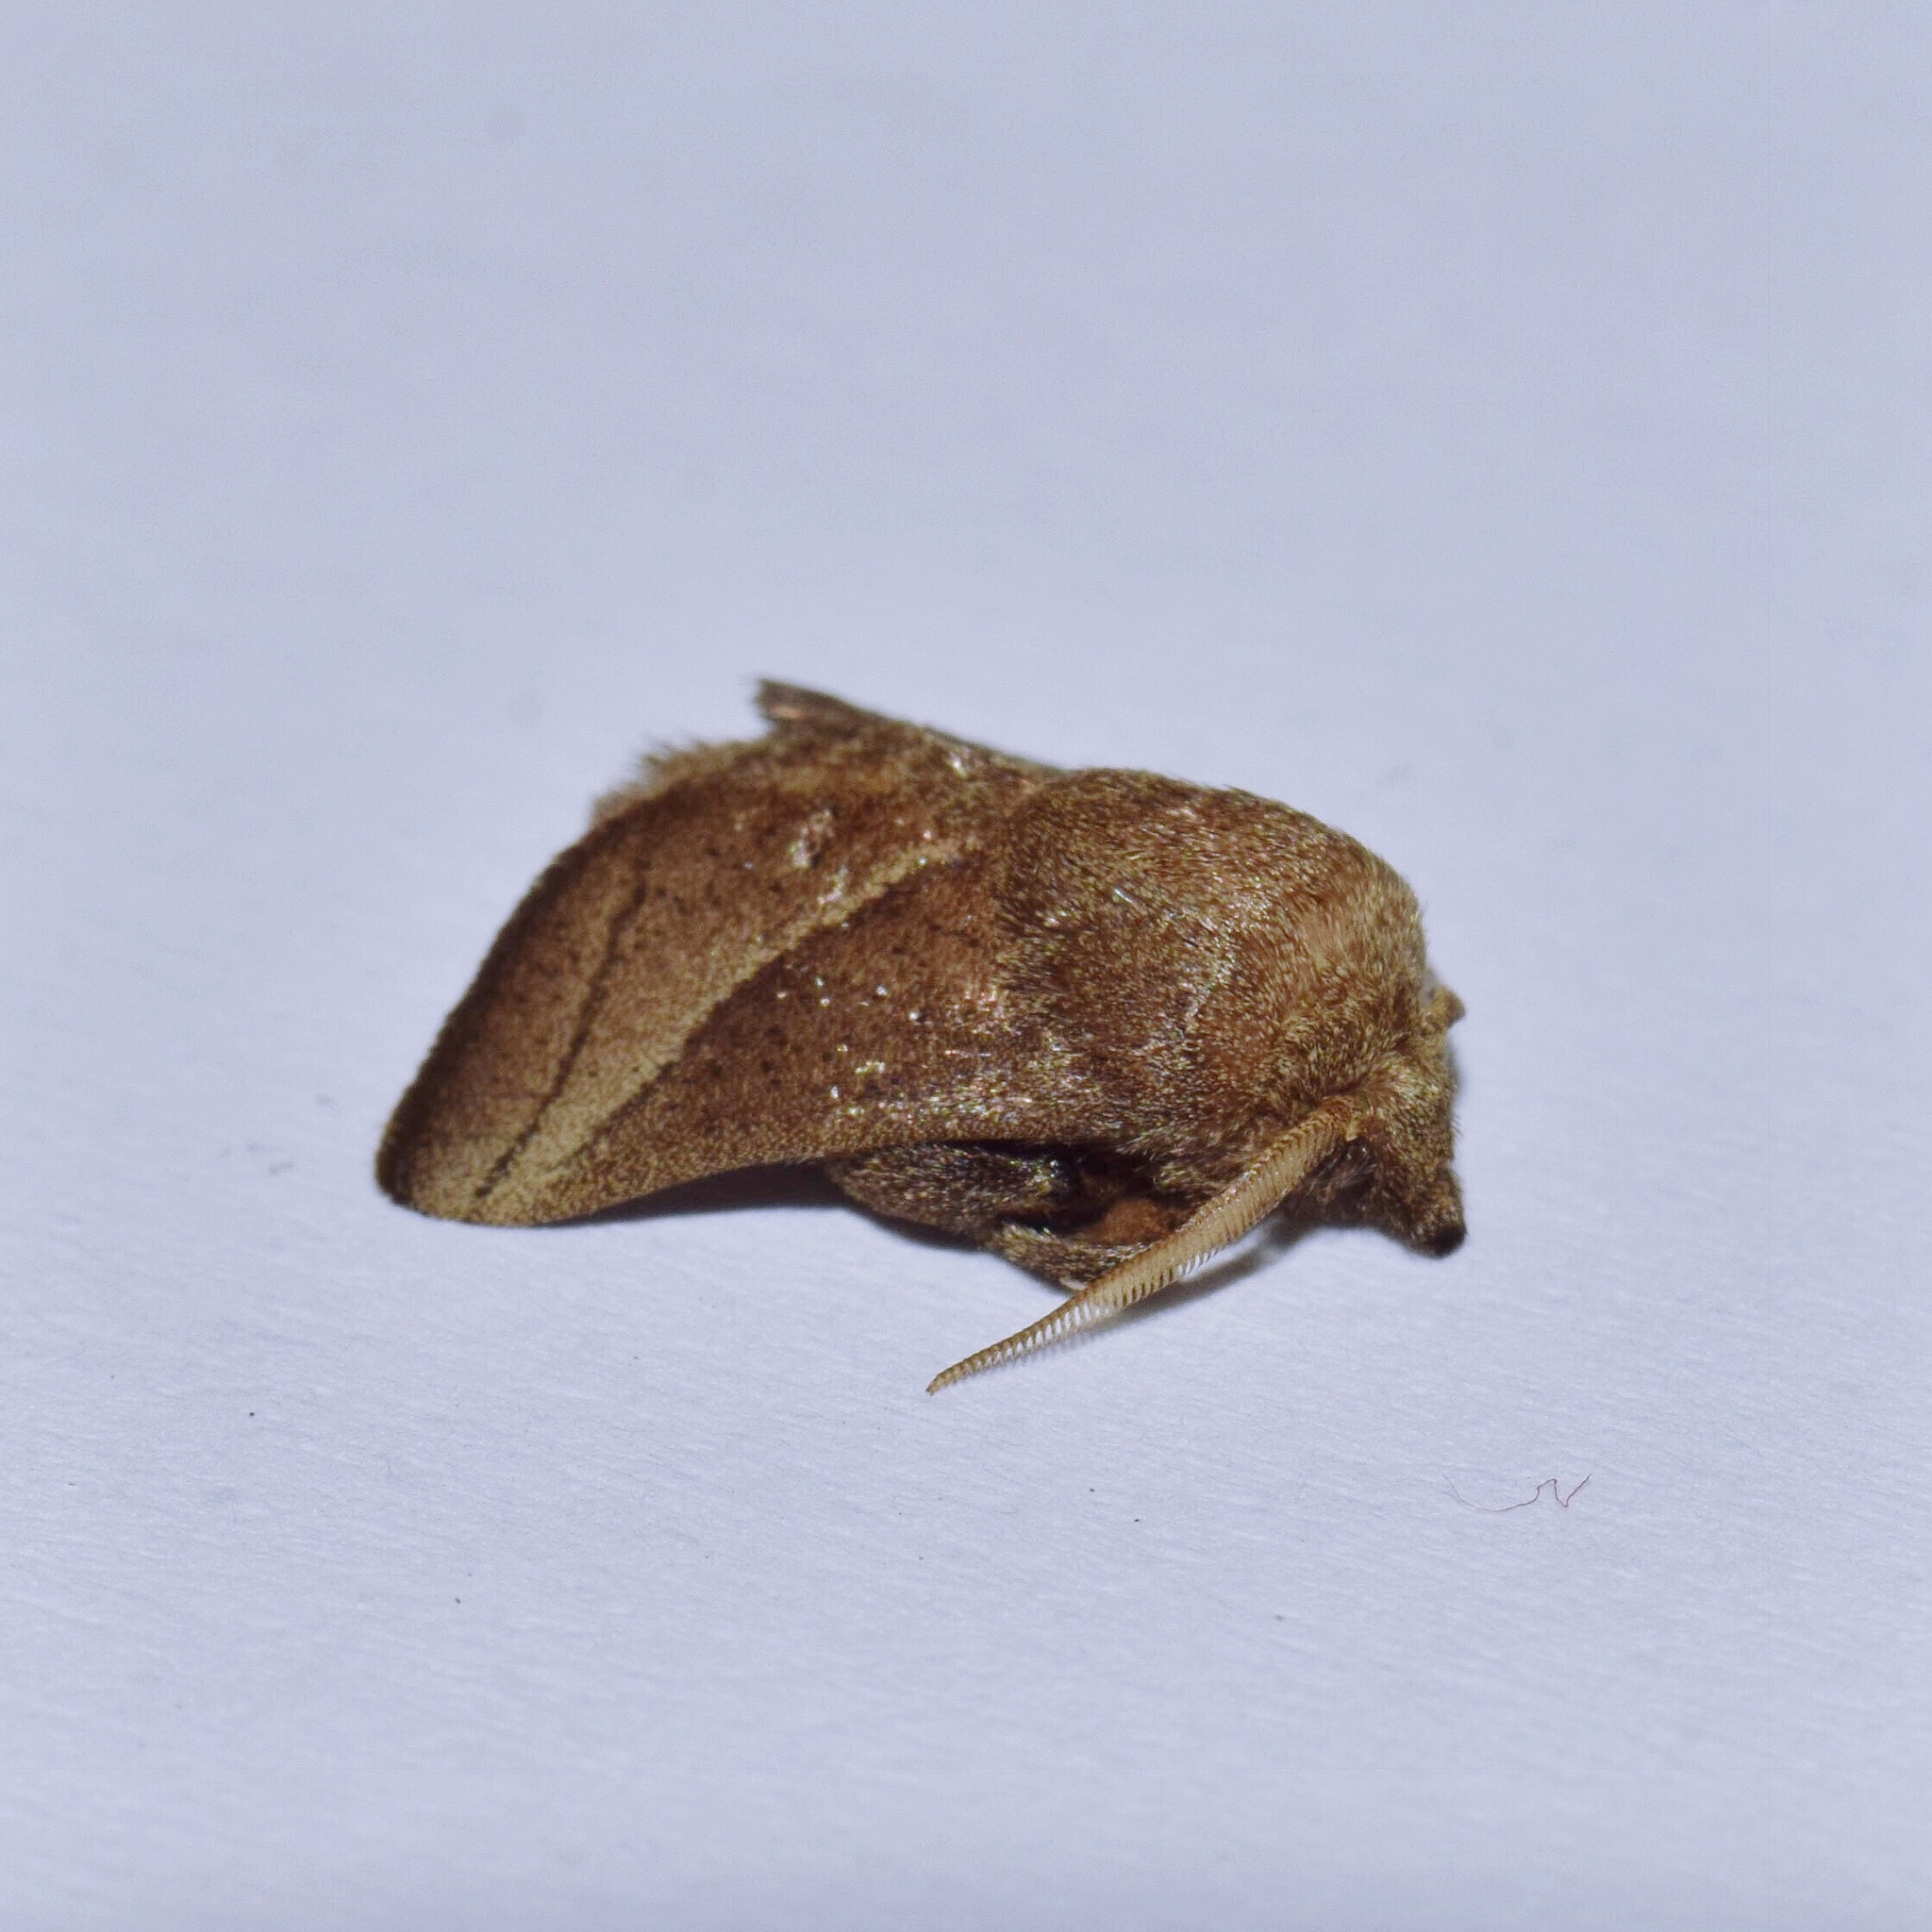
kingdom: Animalia
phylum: Arthropoda
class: Insecta
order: Lepidoptera
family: Limacodidae
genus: Omocenoides
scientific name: Omocenoides isophanes
